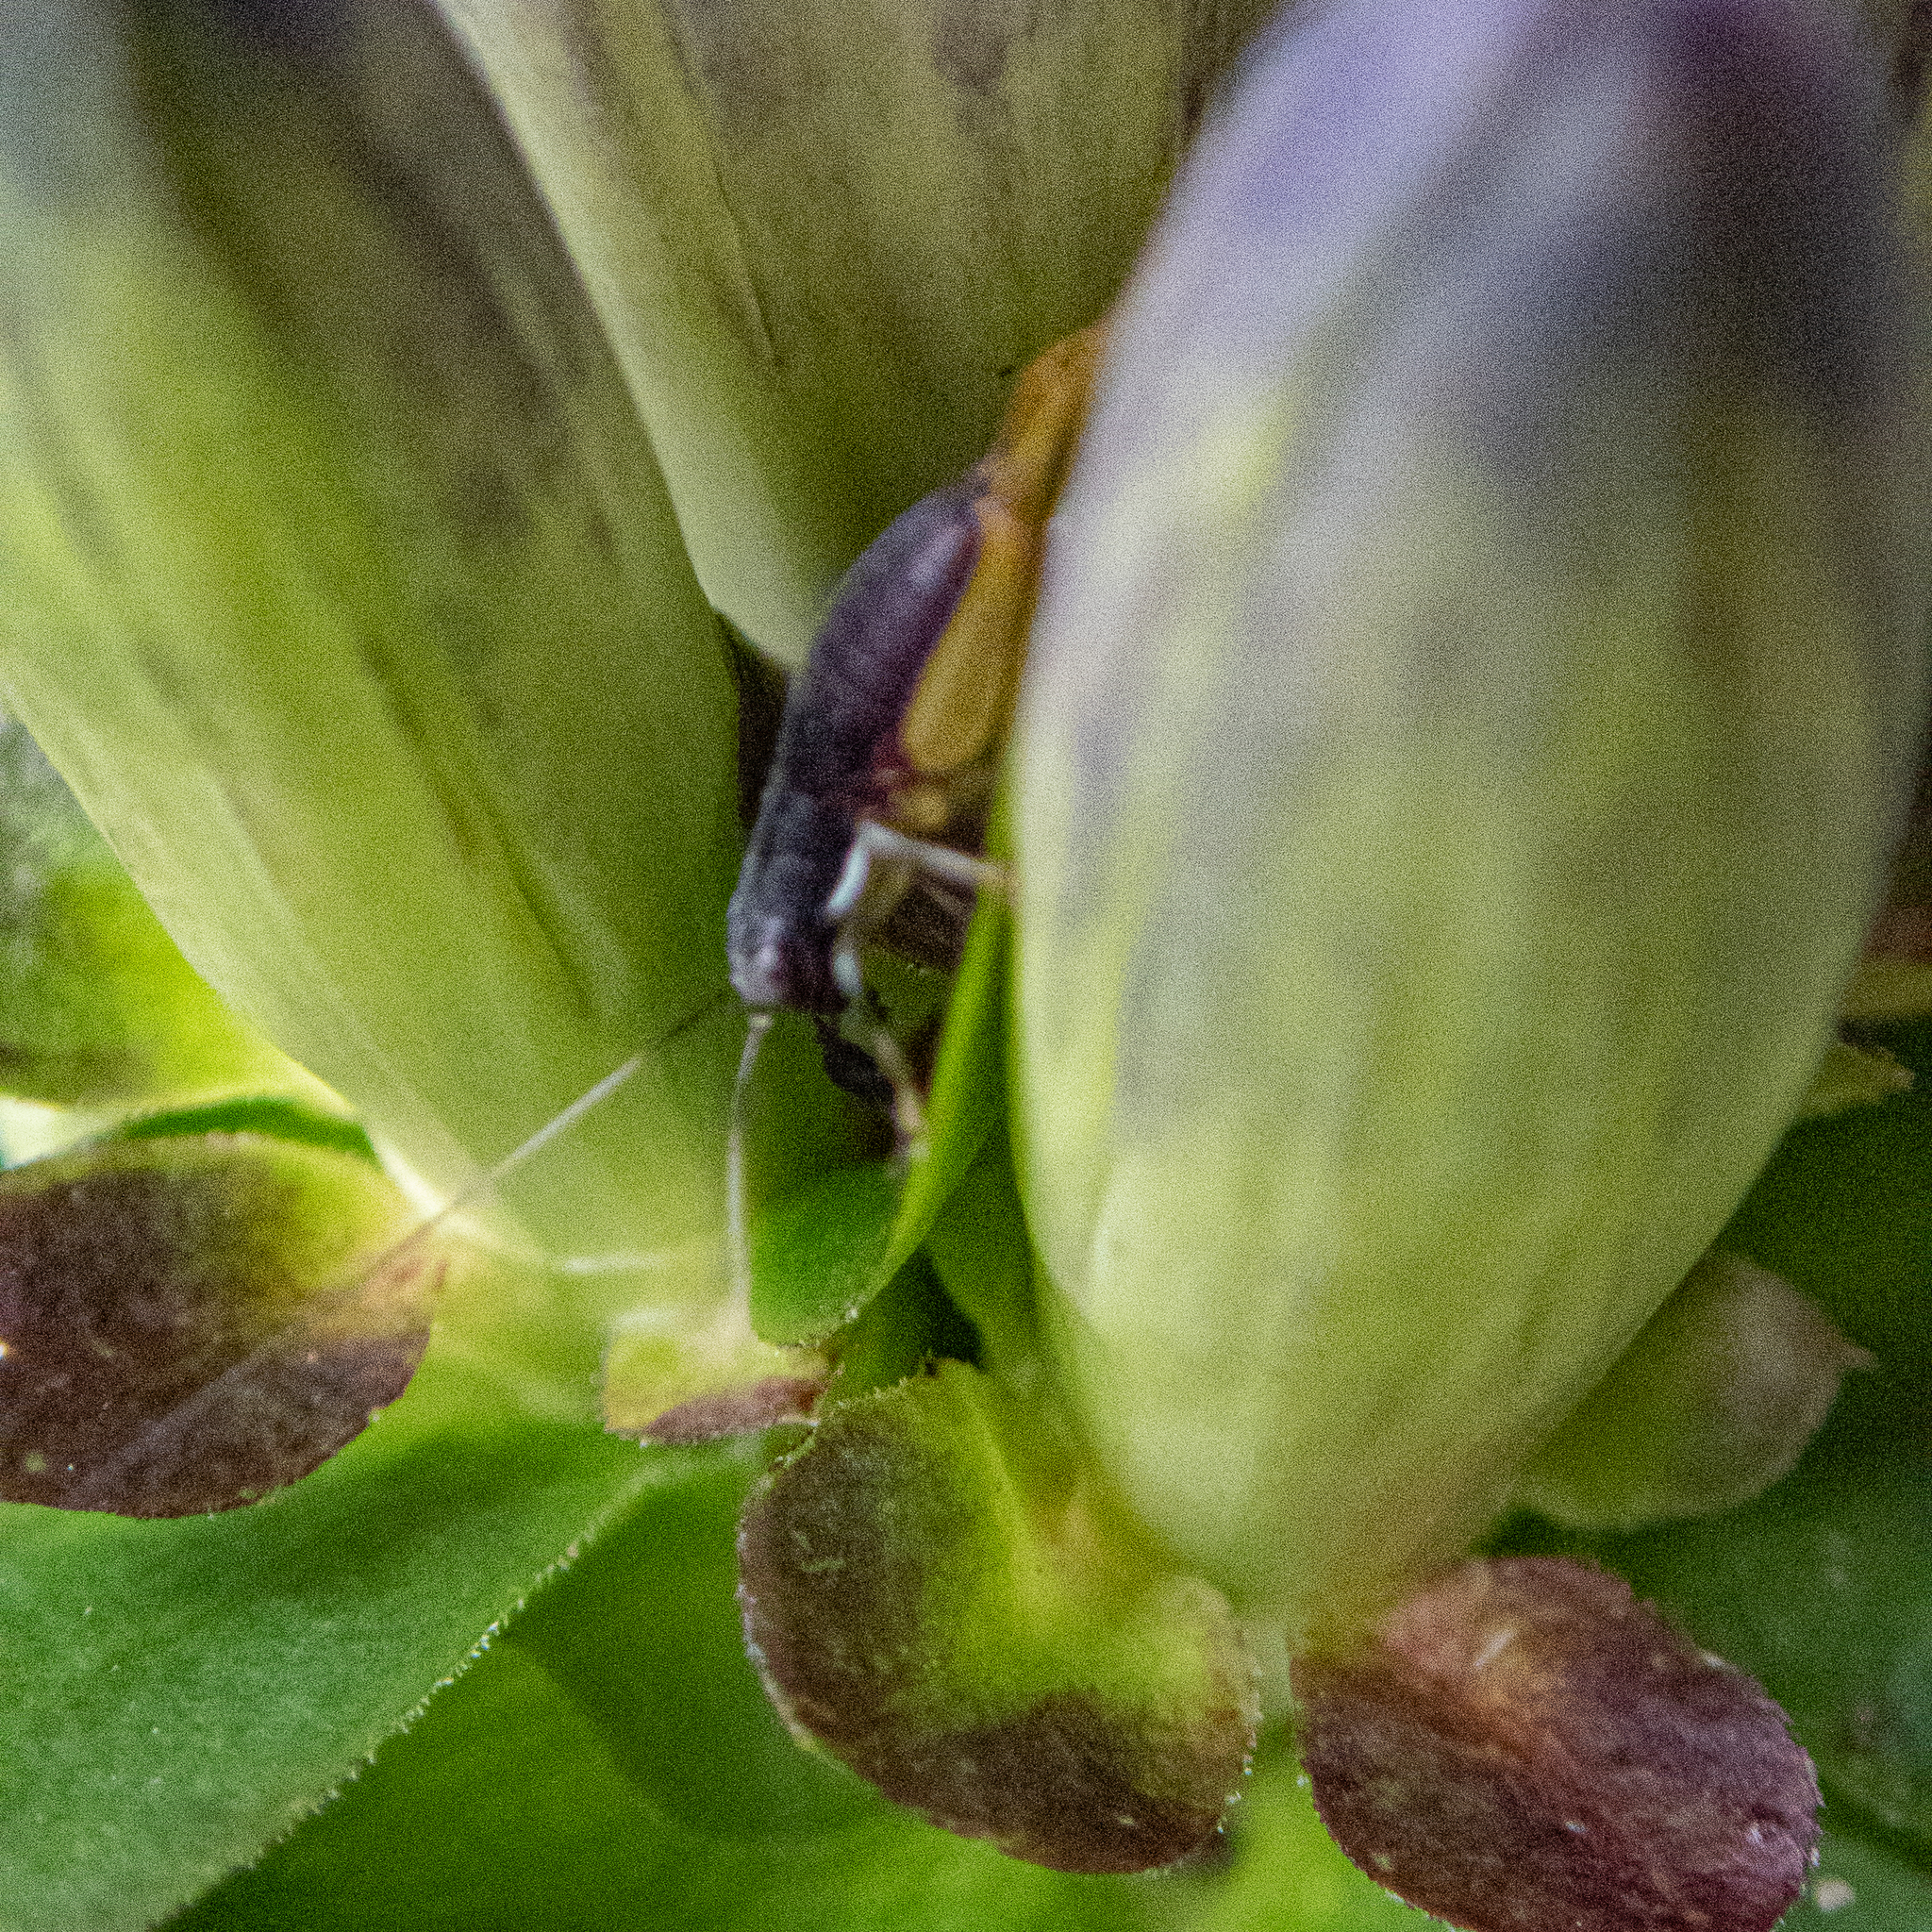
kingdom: Animalia
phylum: Arthropoda
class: Insecta
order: Orthoptera
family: Trigonidiidae
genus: Phyllopalpus
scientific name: Phyllopalpus pulchellus
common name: Handsome trig
